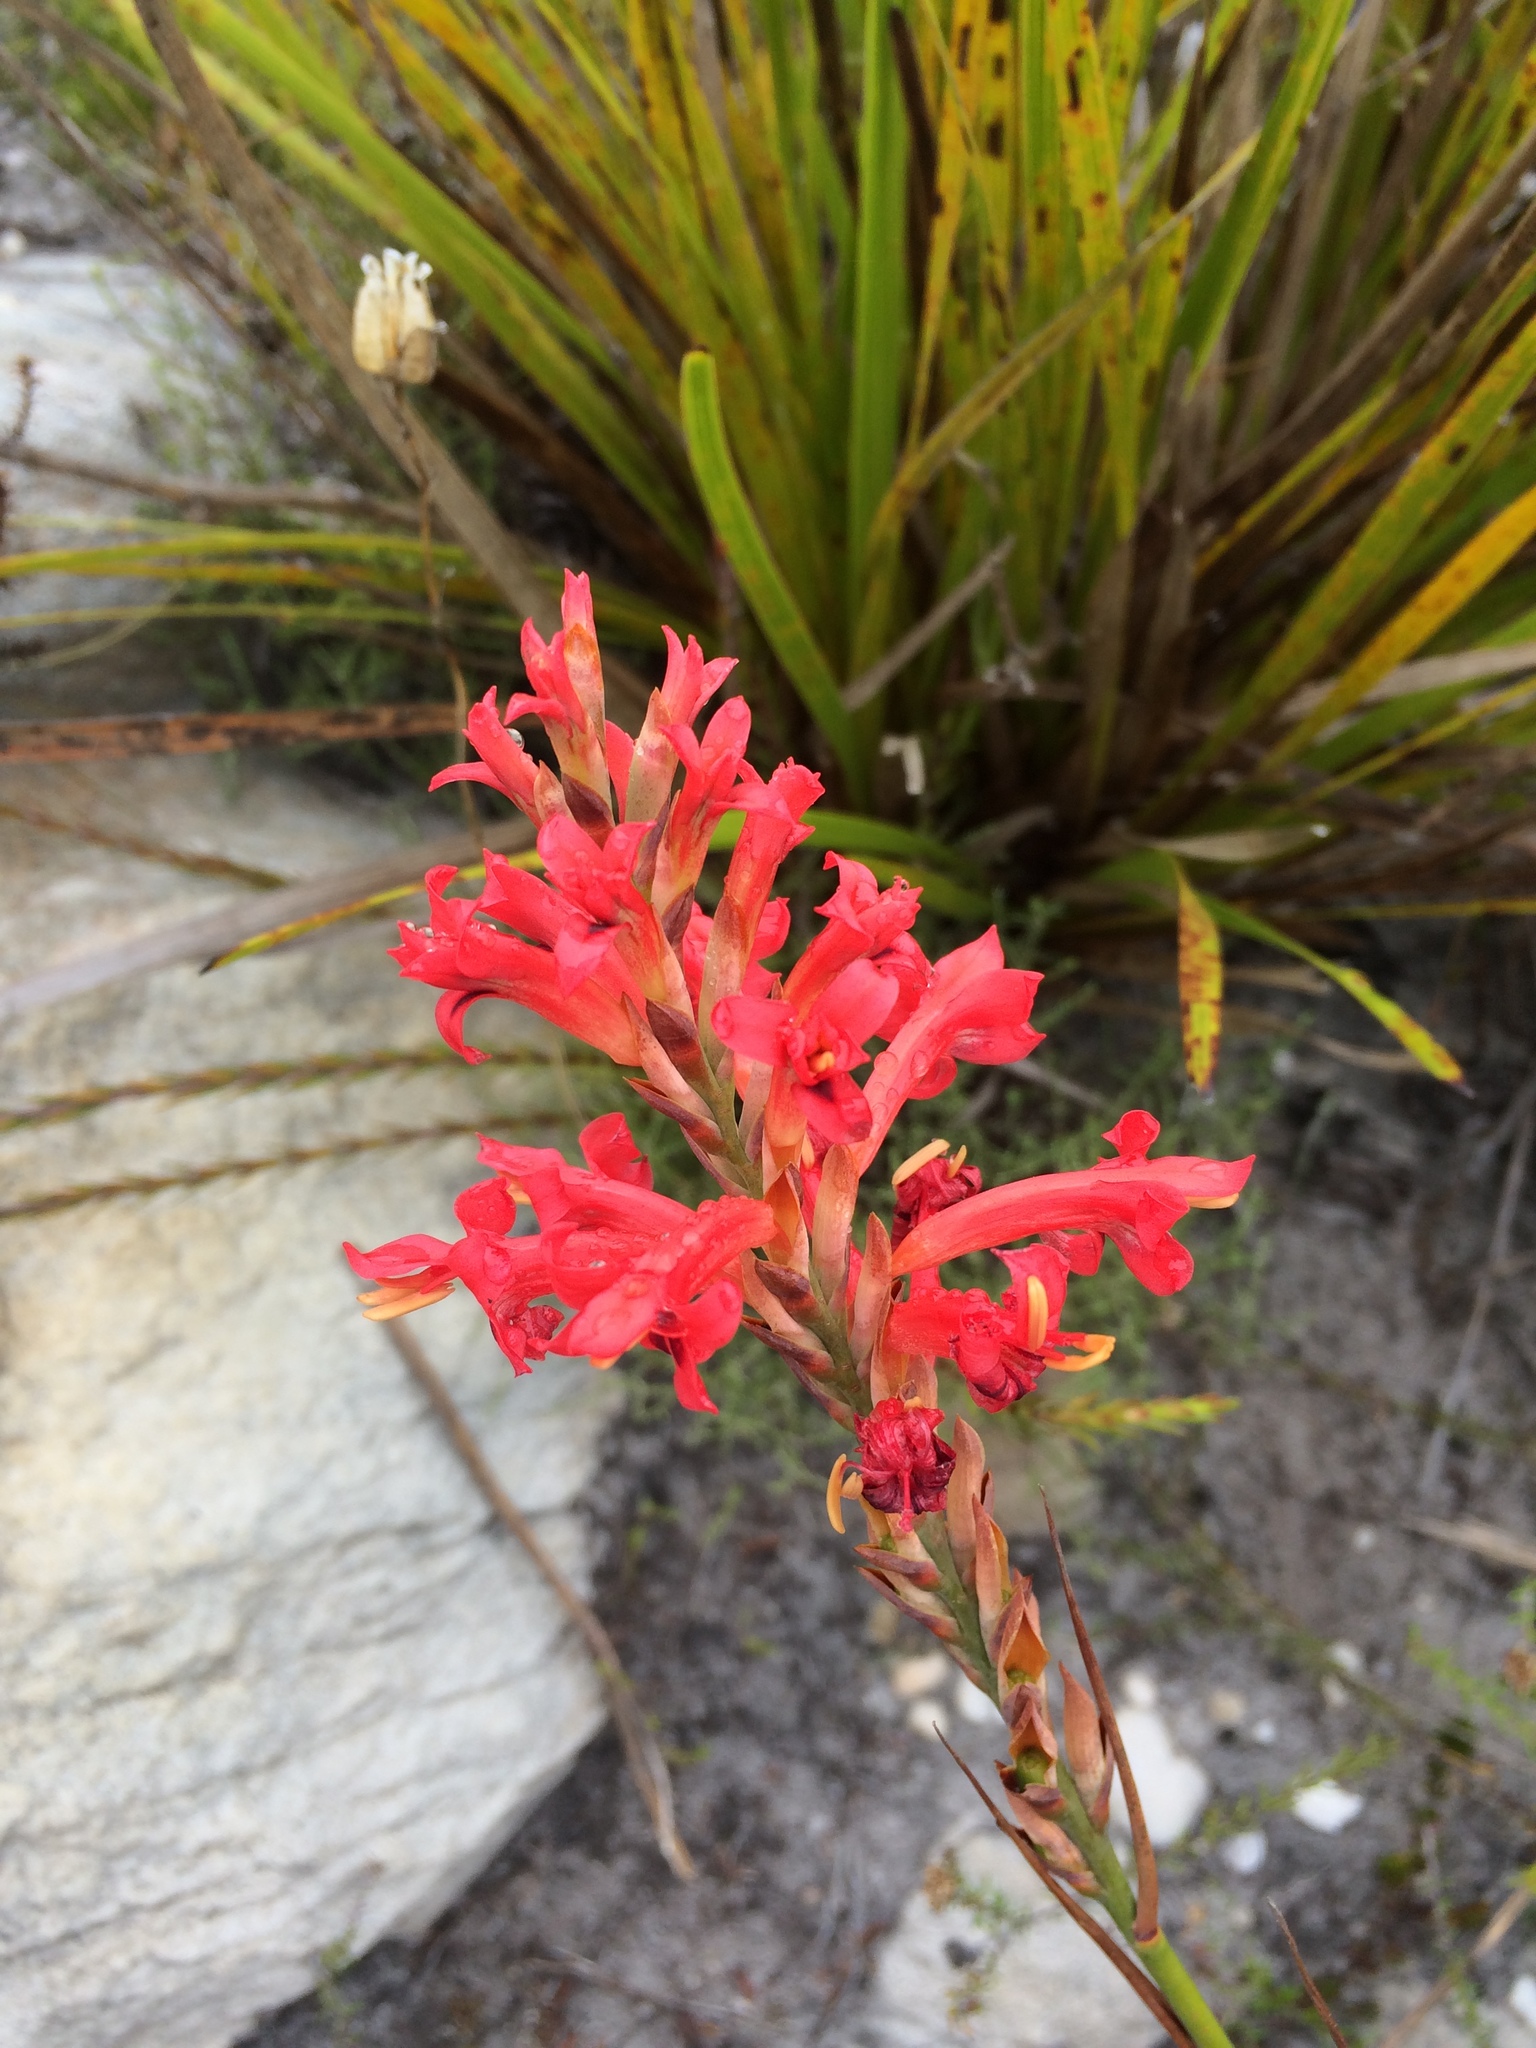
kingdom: Plantae
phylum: Tracheophyta
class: Liliopsida
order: Asparagales
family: Iridaceae
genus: Tritoniopsis
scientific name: Tritoniopsis triticea
